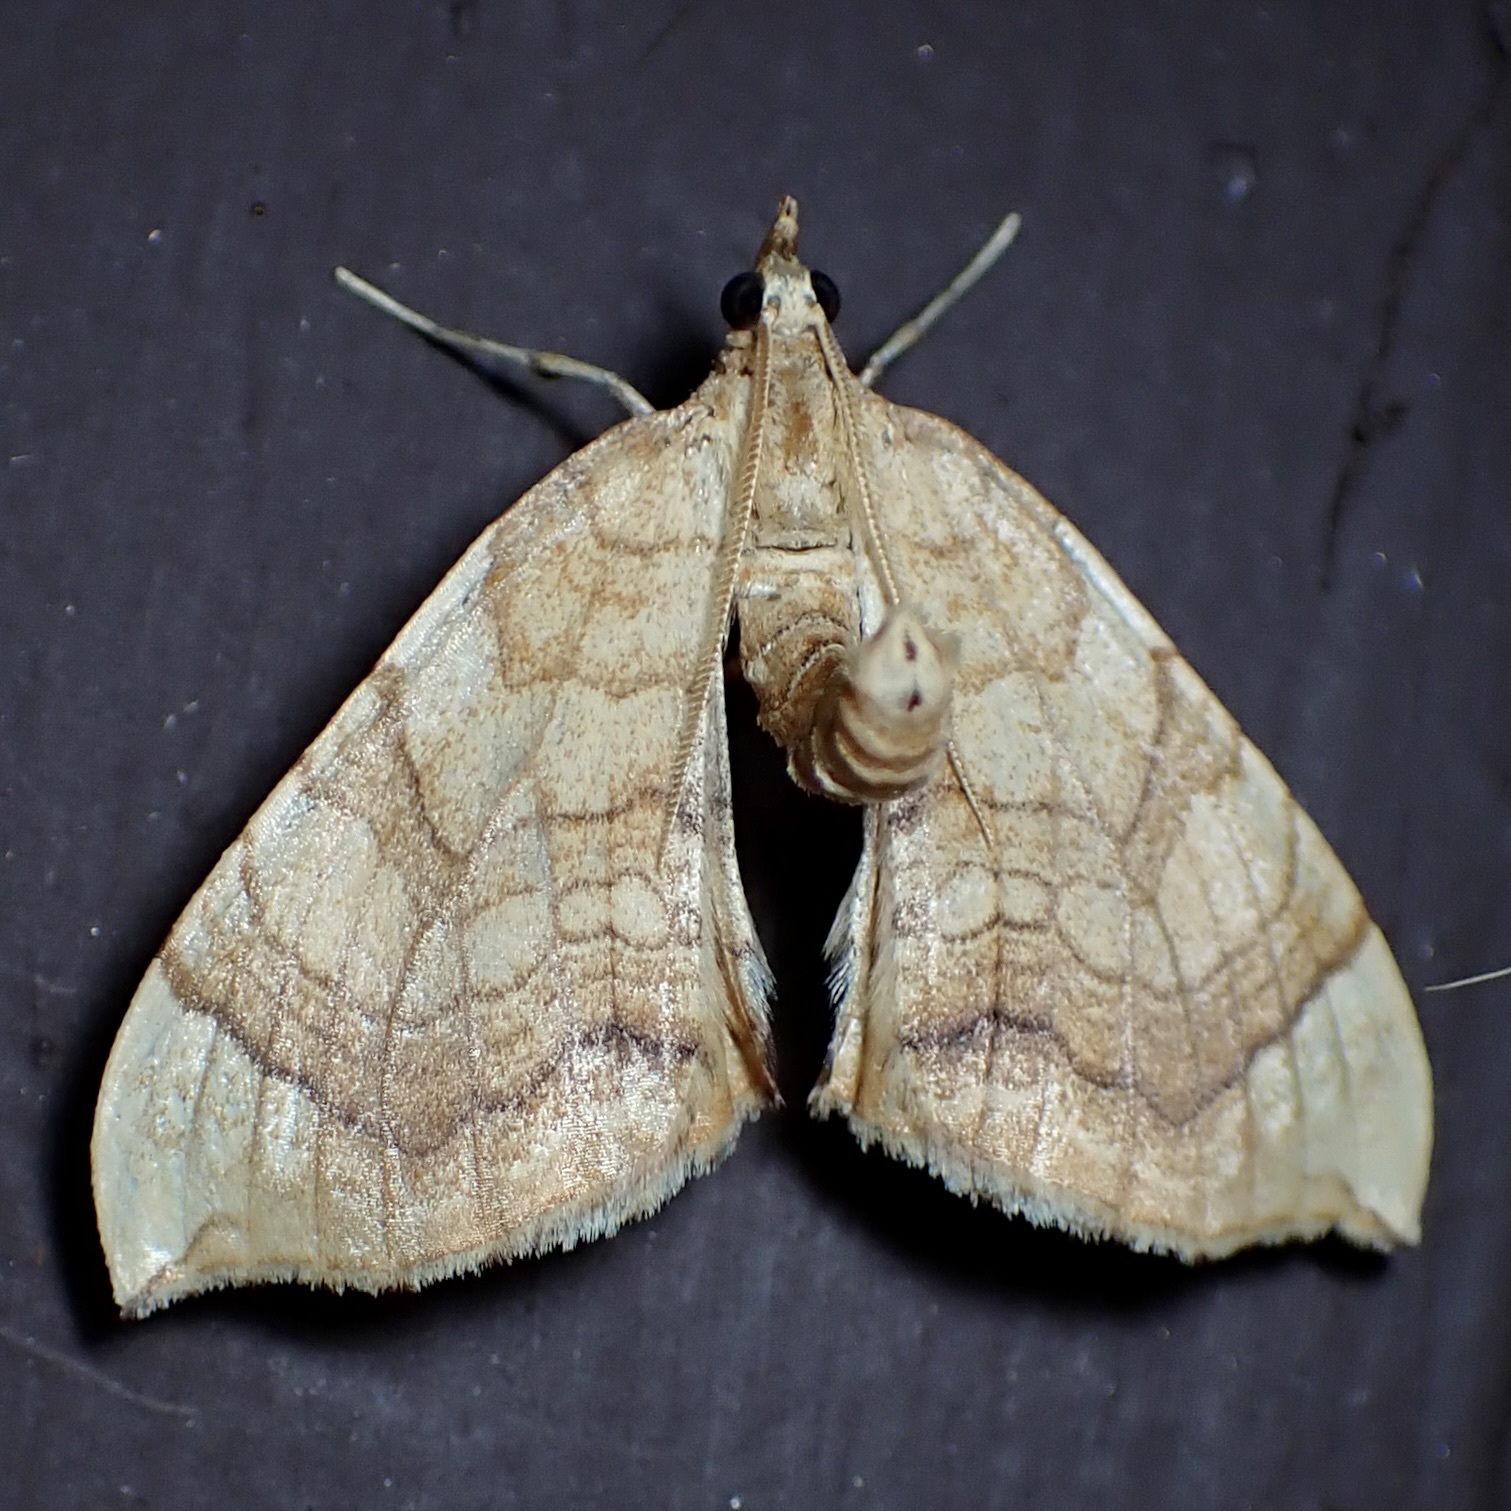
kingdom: Animalia
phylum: Arthropoda
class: Insecta
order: Lepidoptera
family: Geometridae
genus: Eulithis
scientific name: Eulithis luteolata
